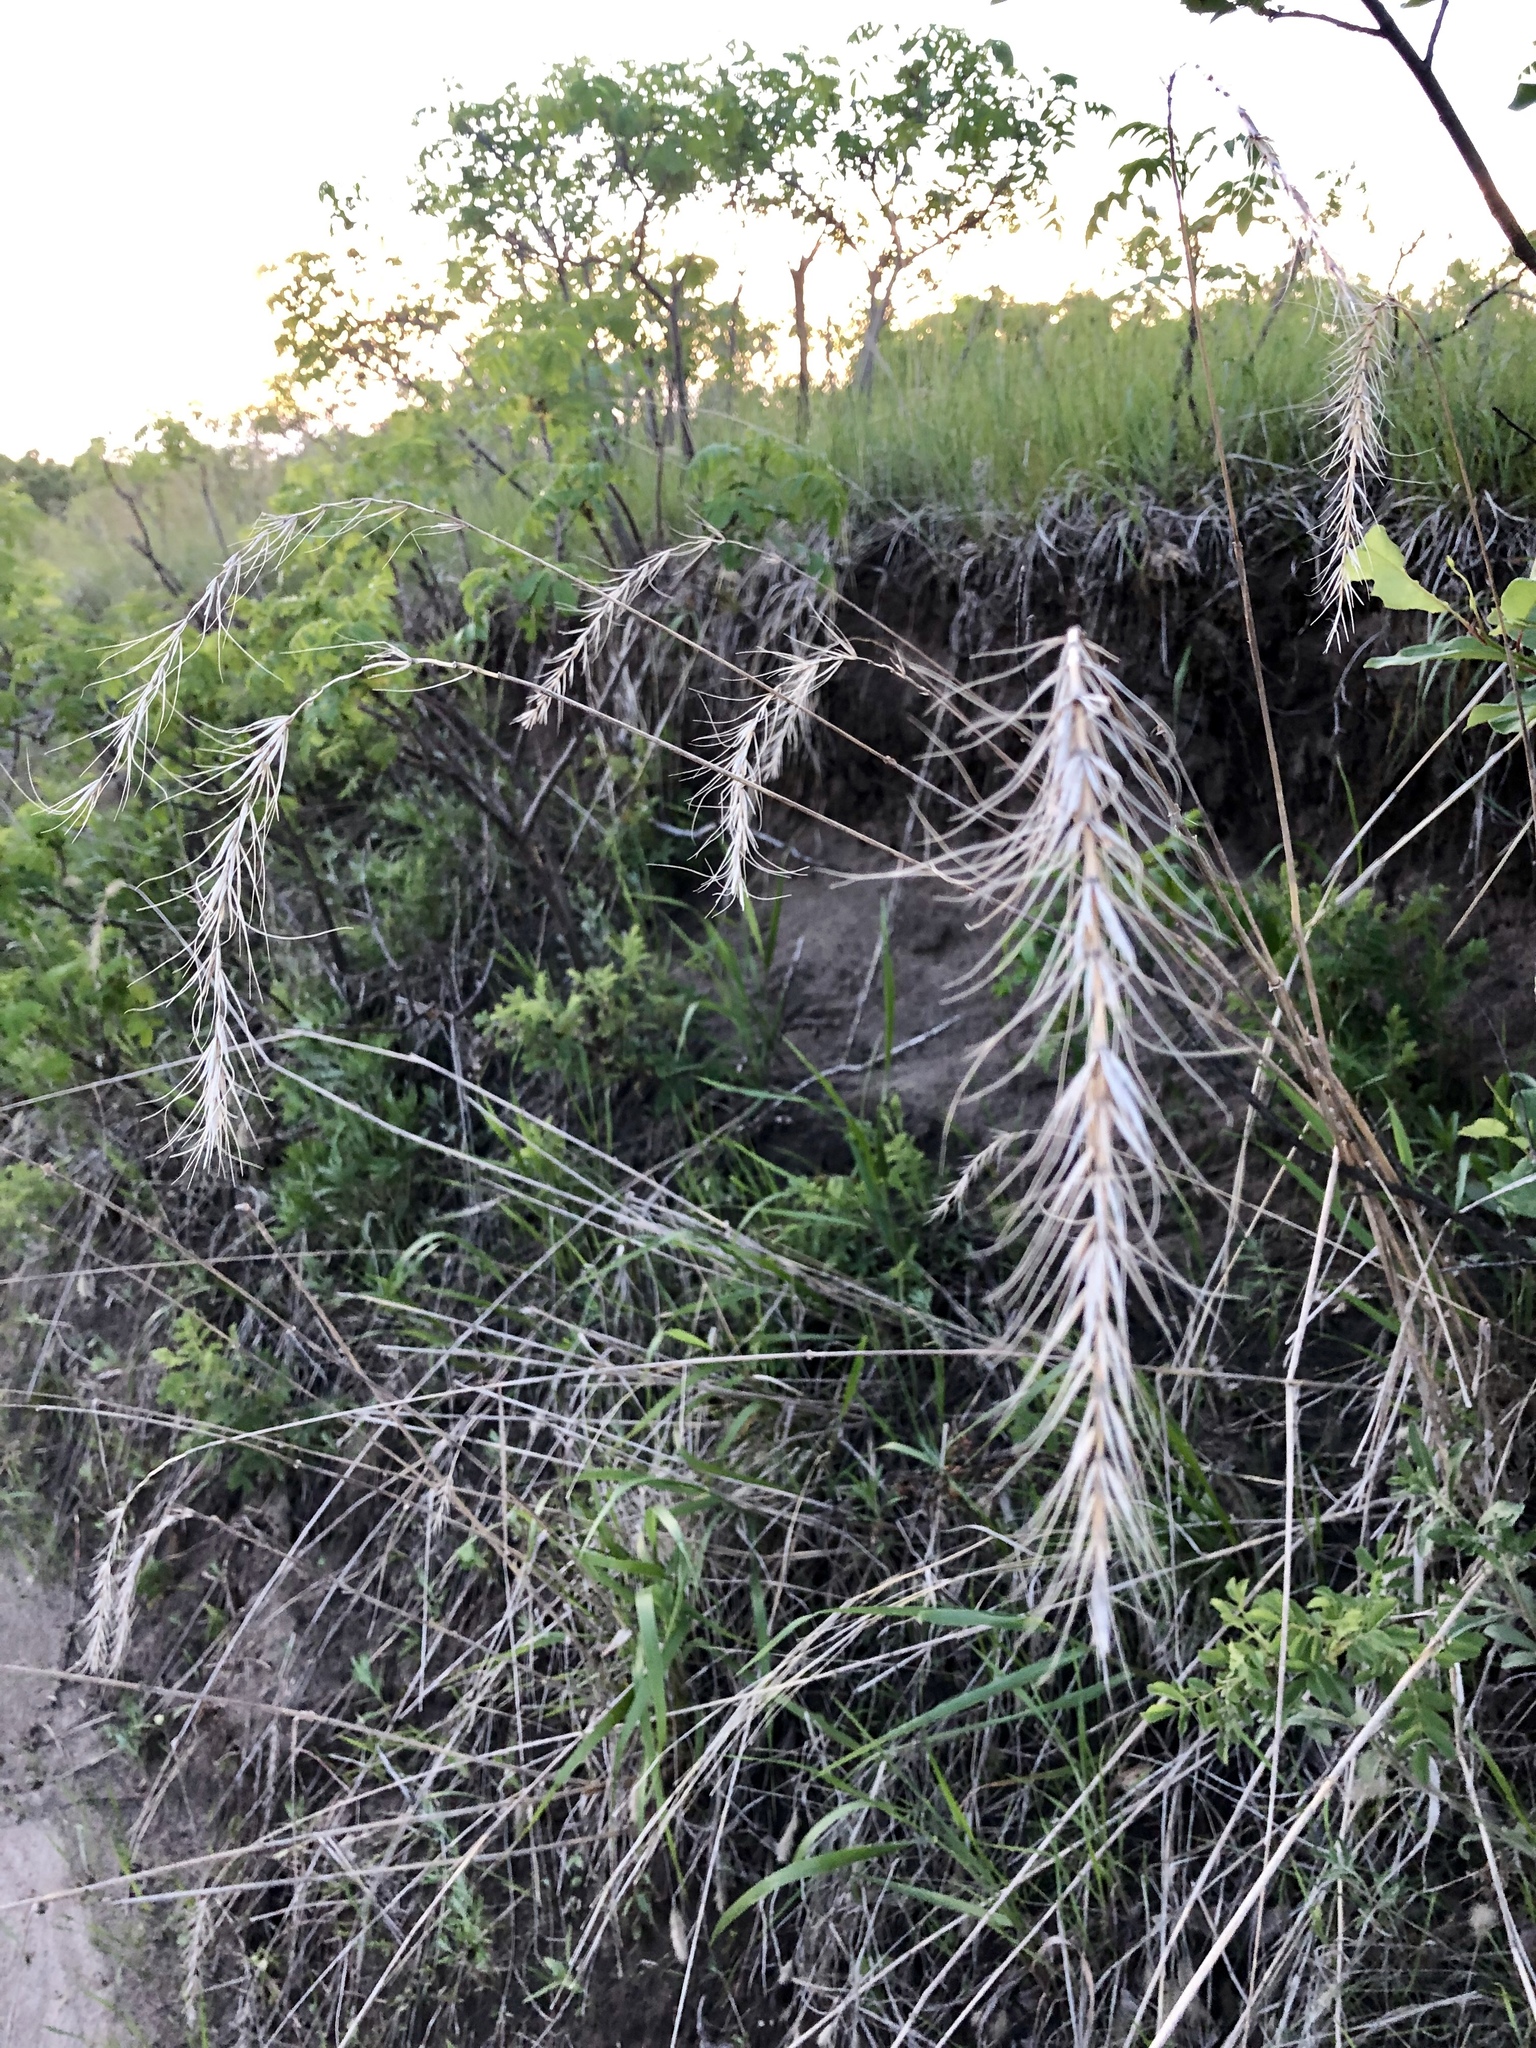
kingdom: Plantae
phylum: Tracheophyta
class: Liliopsida
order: Poales
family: Poaceae
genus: Elymus
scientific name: Elymus canadensis
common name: Canada wild rye
